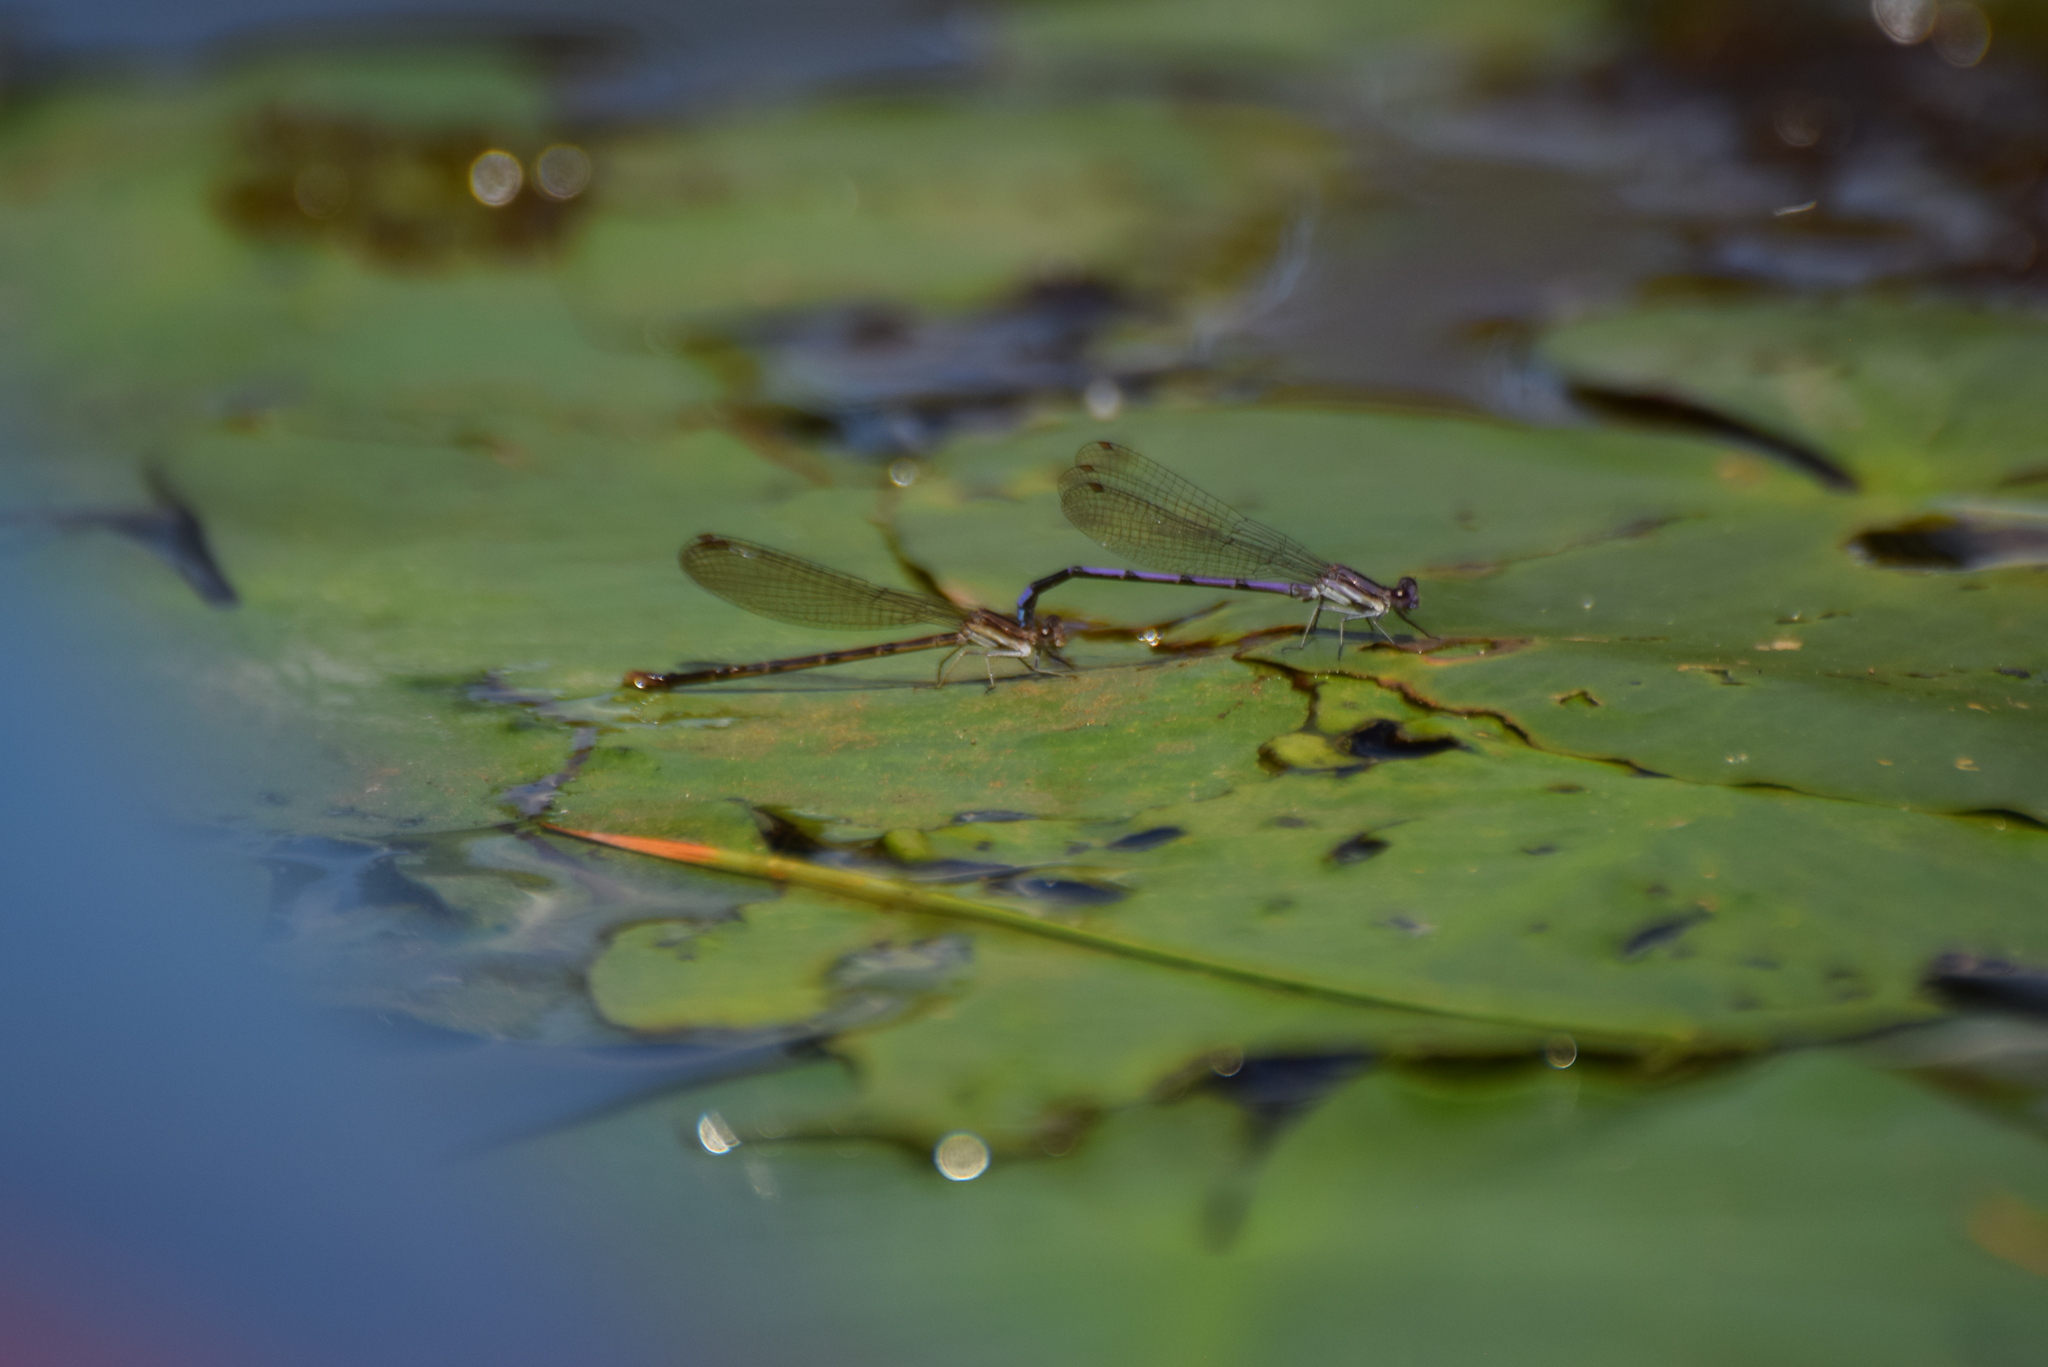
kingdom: Animalia
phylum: Arthropoda
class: Insecta
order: Odonata
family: Coenagrionidae
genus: Argia
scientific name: Argia fumipennis
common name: Variable dancer
